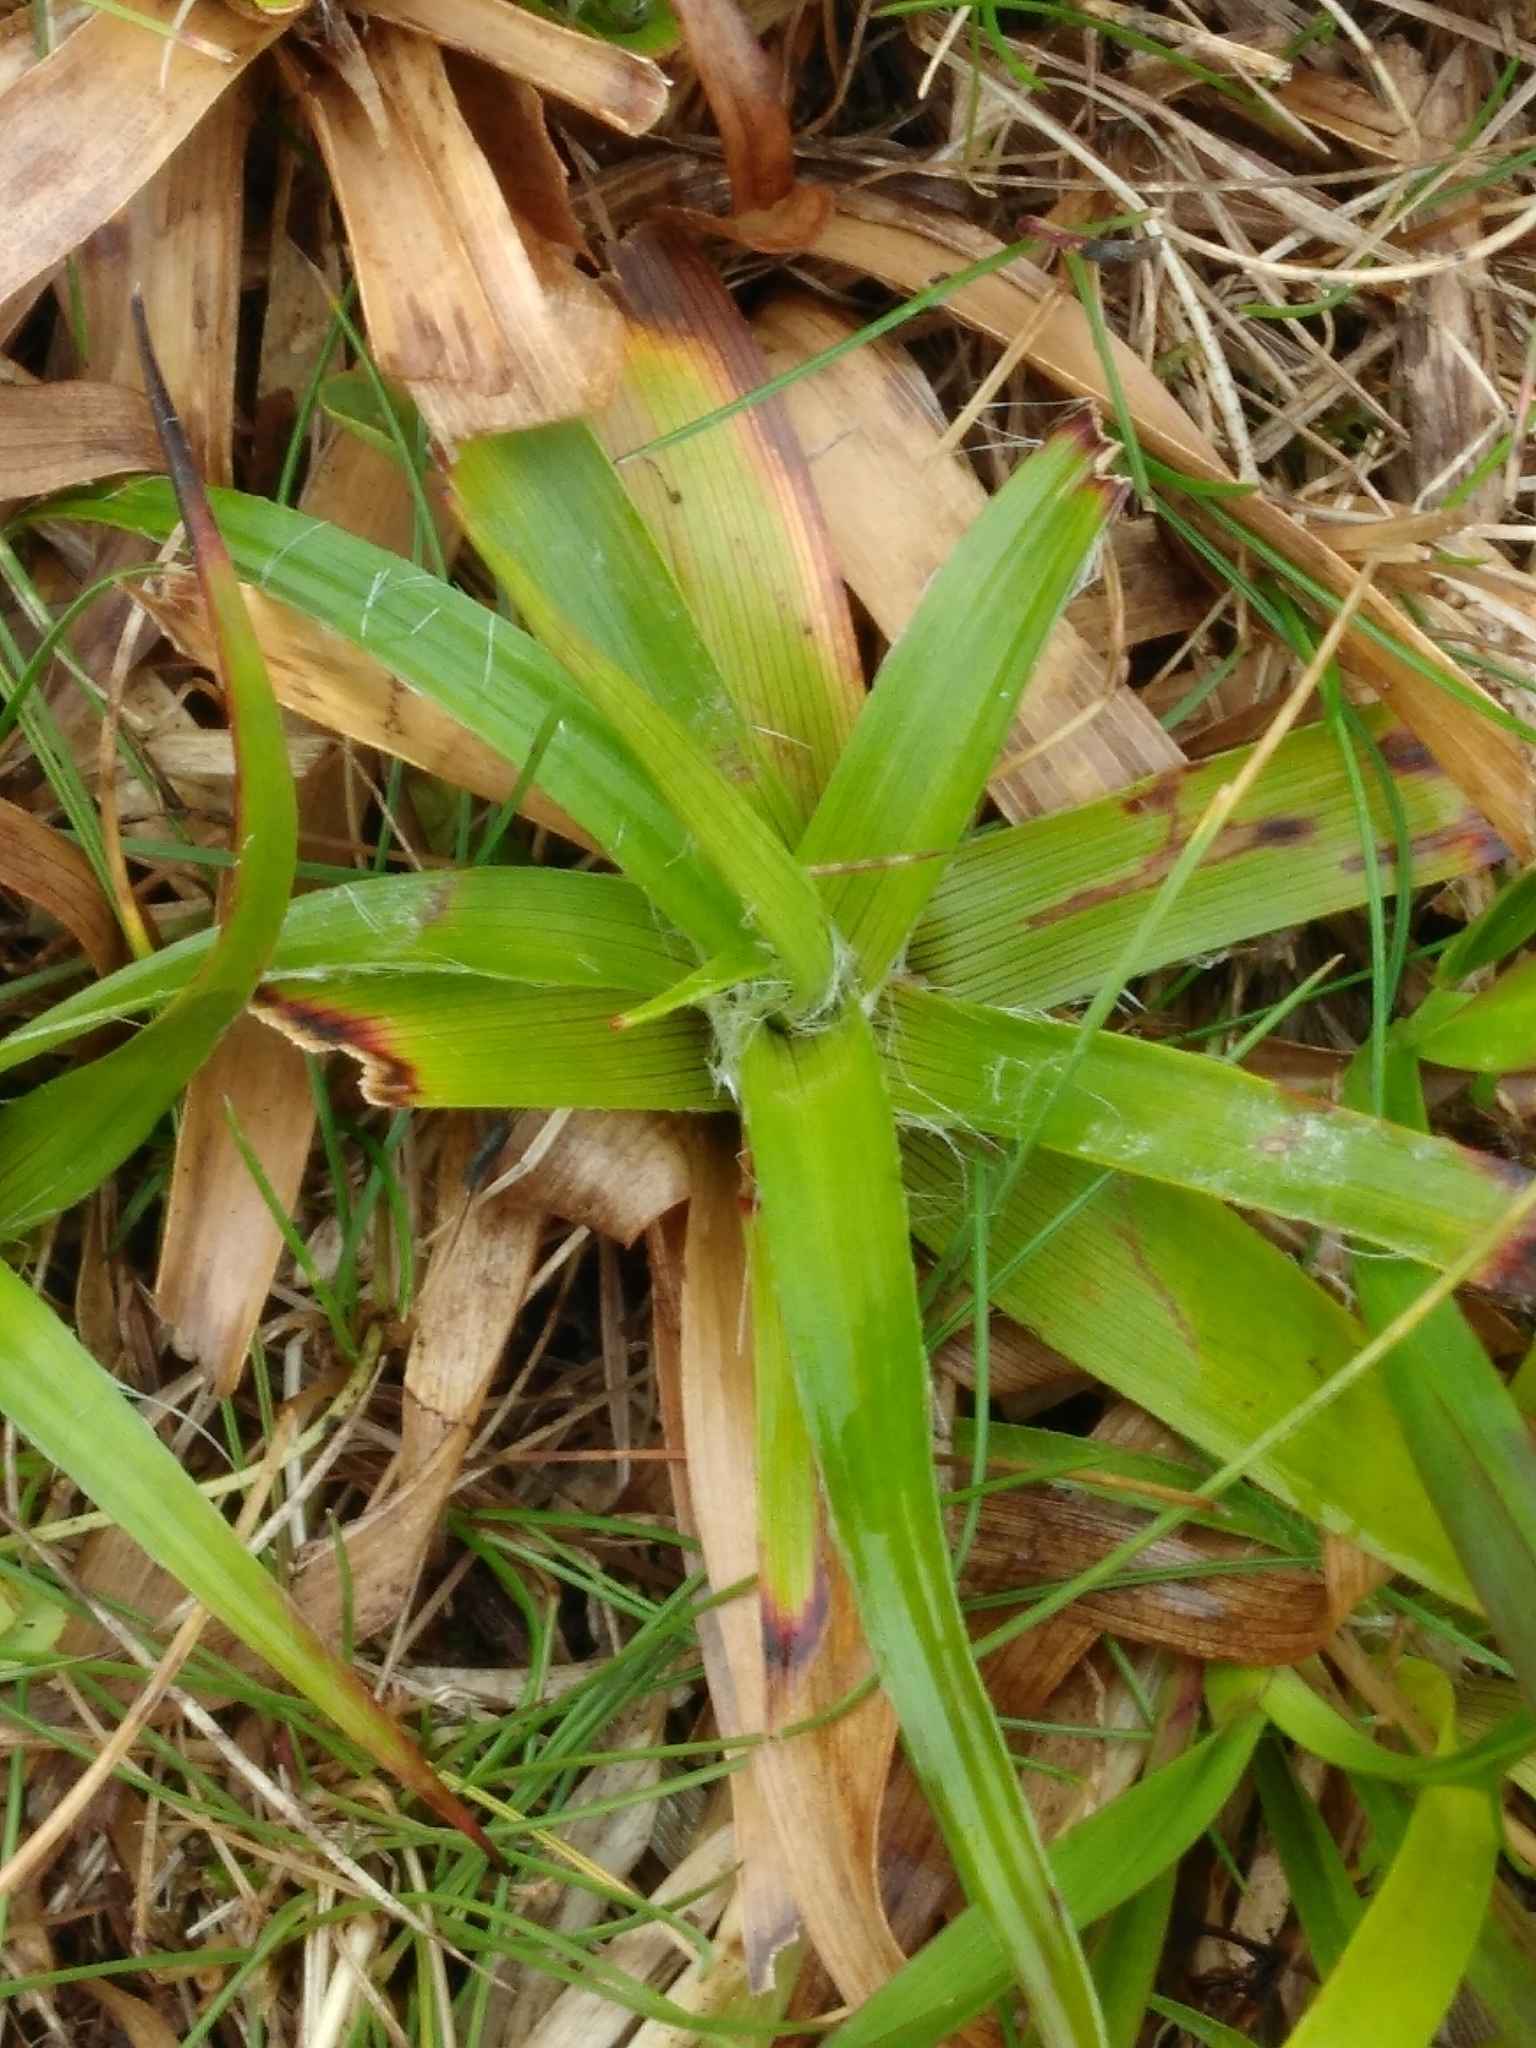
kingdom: Plantae
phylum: Tracheophyta
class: Liliopsida
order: Poales
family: Juncaceae
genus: Luzula
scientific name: Luzula sylvatica
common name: Great wood-rush
